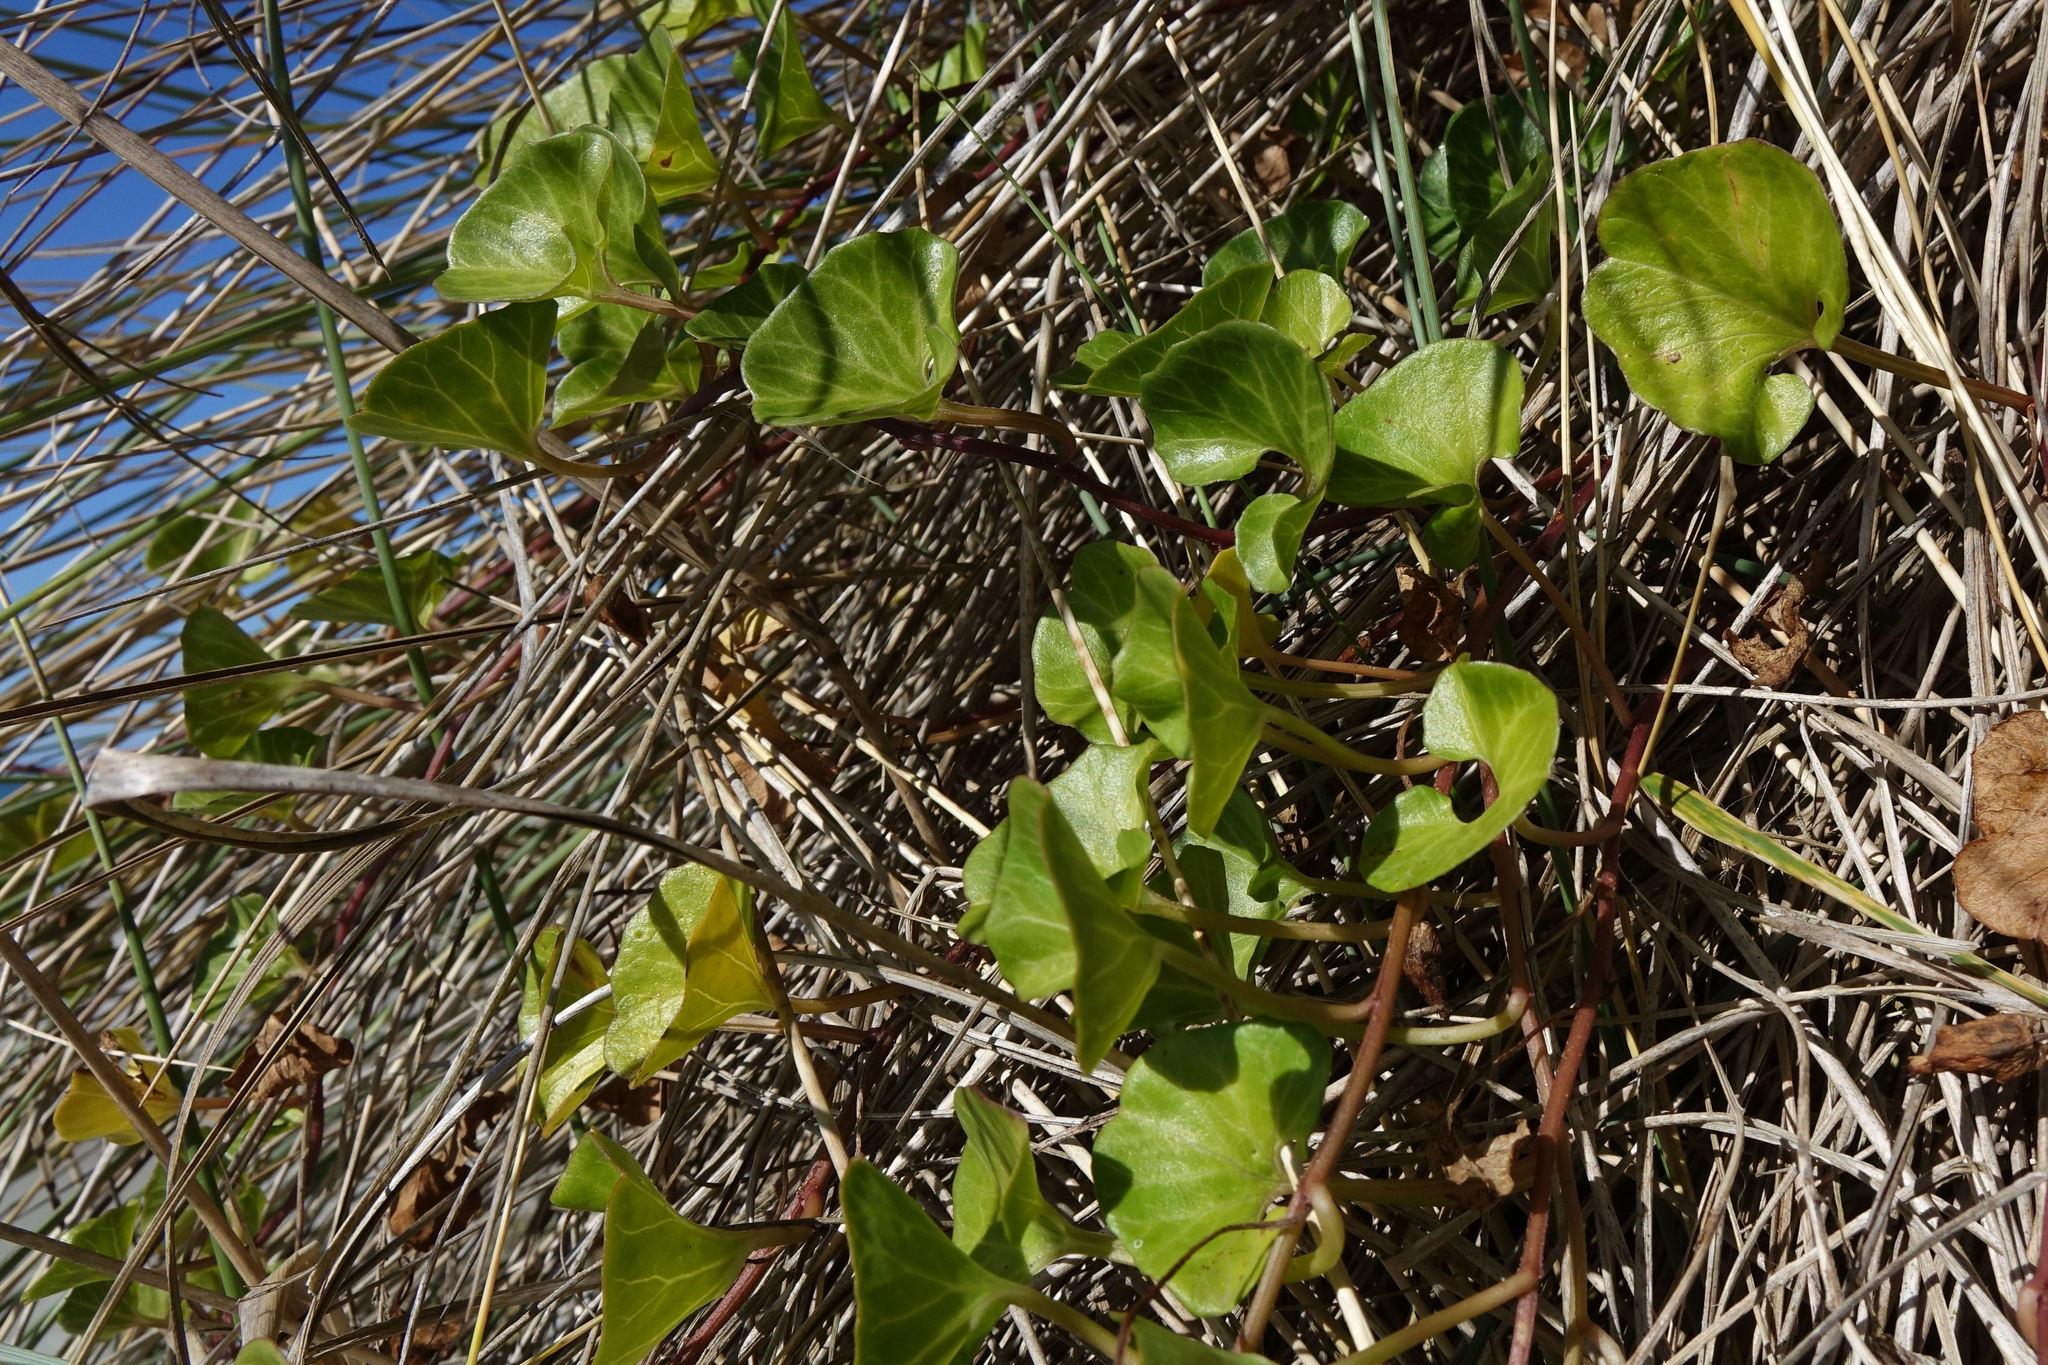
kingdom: Plantae
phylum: Tracheophyta
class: Magnoliopsida
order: Solanales
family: Convolvulaceae
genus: Calystegia
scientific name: Calystegia soldanella
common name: Sea bindweed
